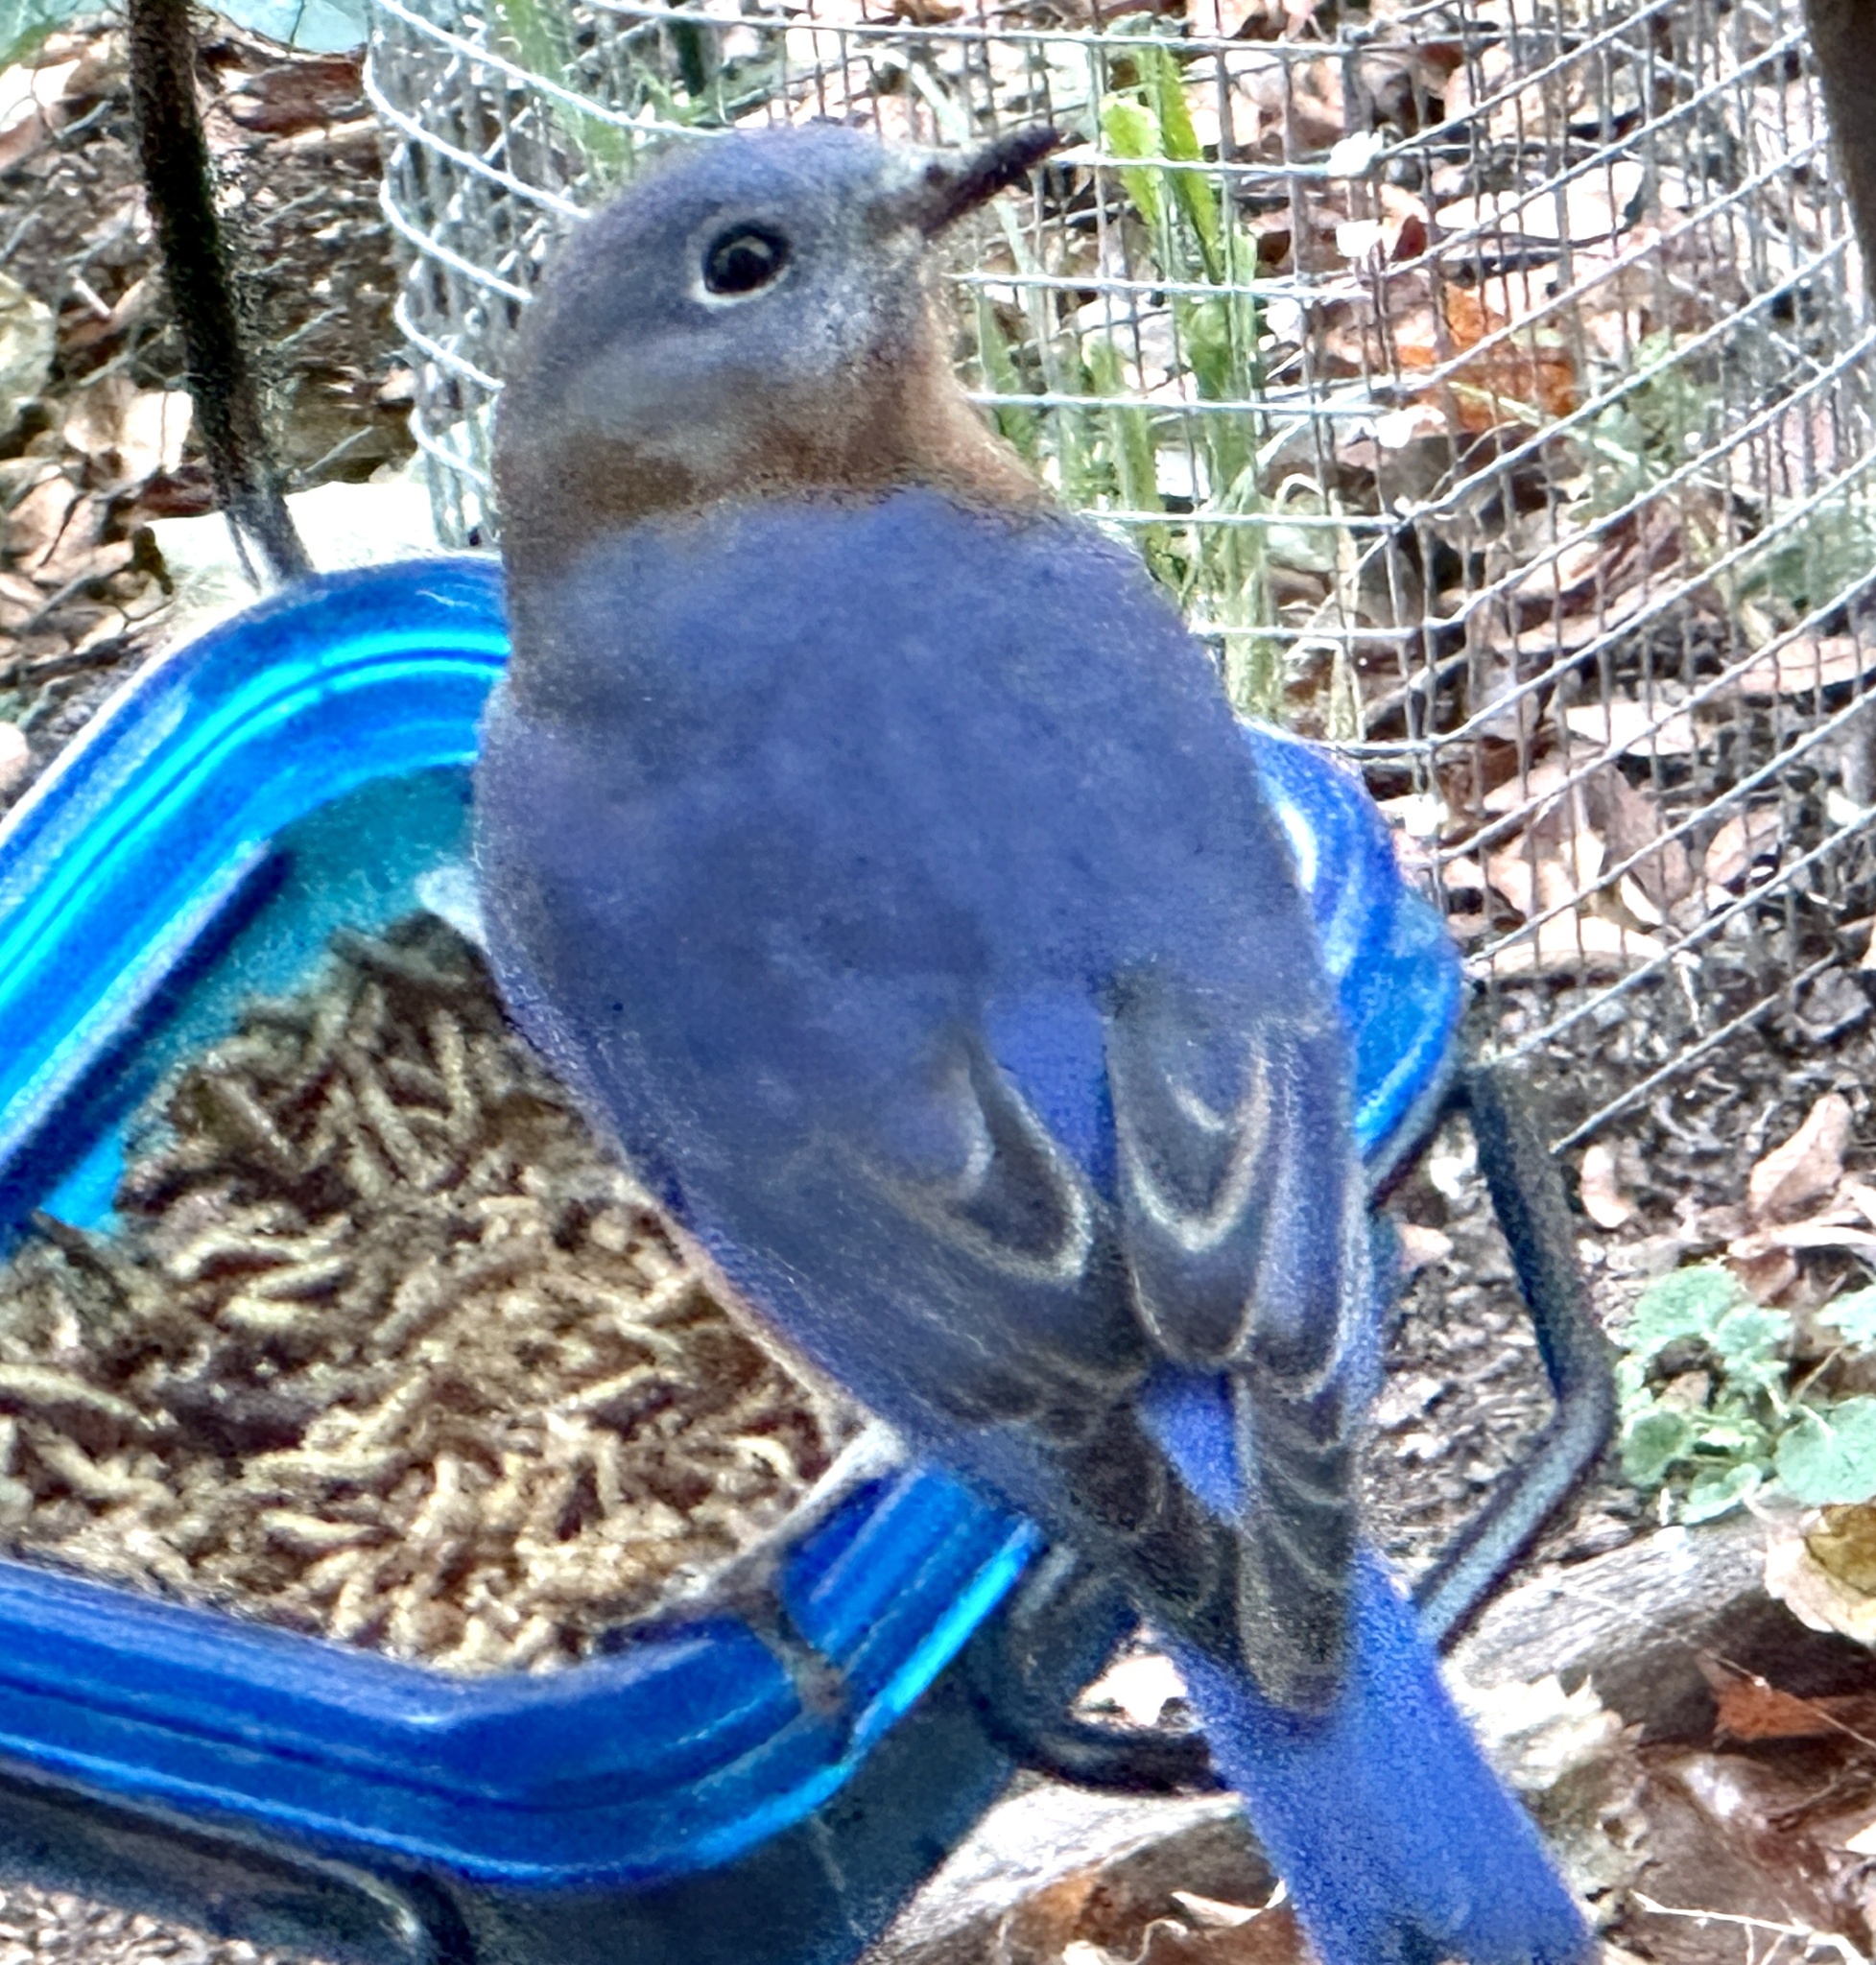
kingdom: Animalia
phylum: Chordata
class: Aves
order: Passeriformes
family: Turdidae
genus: Sialia
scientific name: Sialia sialis
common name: Eastern bluebird
